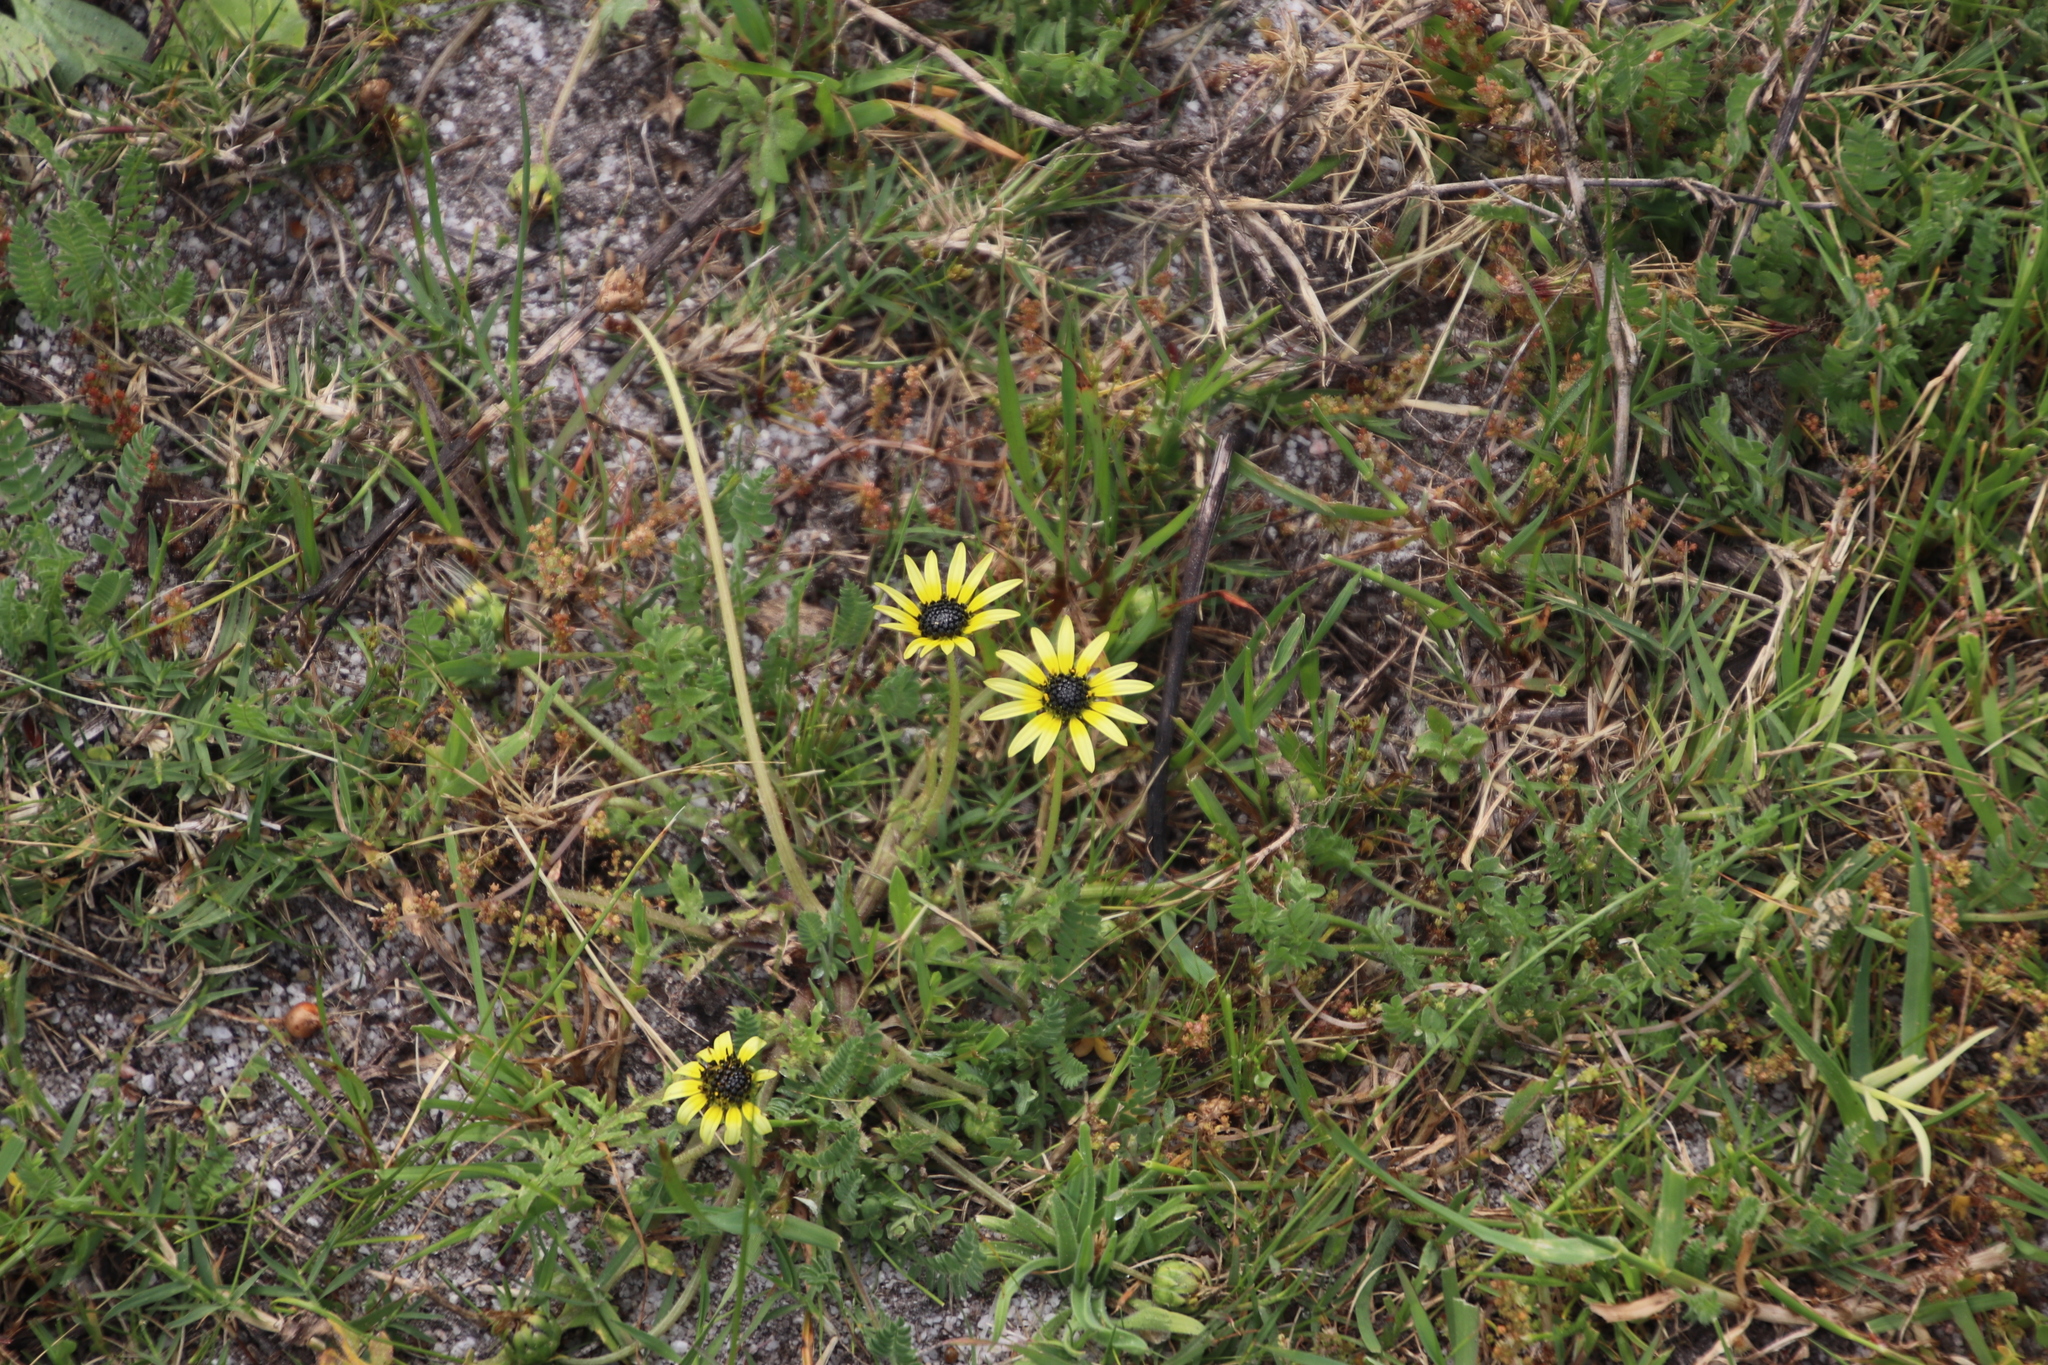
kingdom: Plantae
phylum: Tracheophyta
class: Magnoliopsida
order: Asterales
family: Asteraceae
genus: Arctotheca
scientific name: Arctotheca calendula
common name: Capeweed
